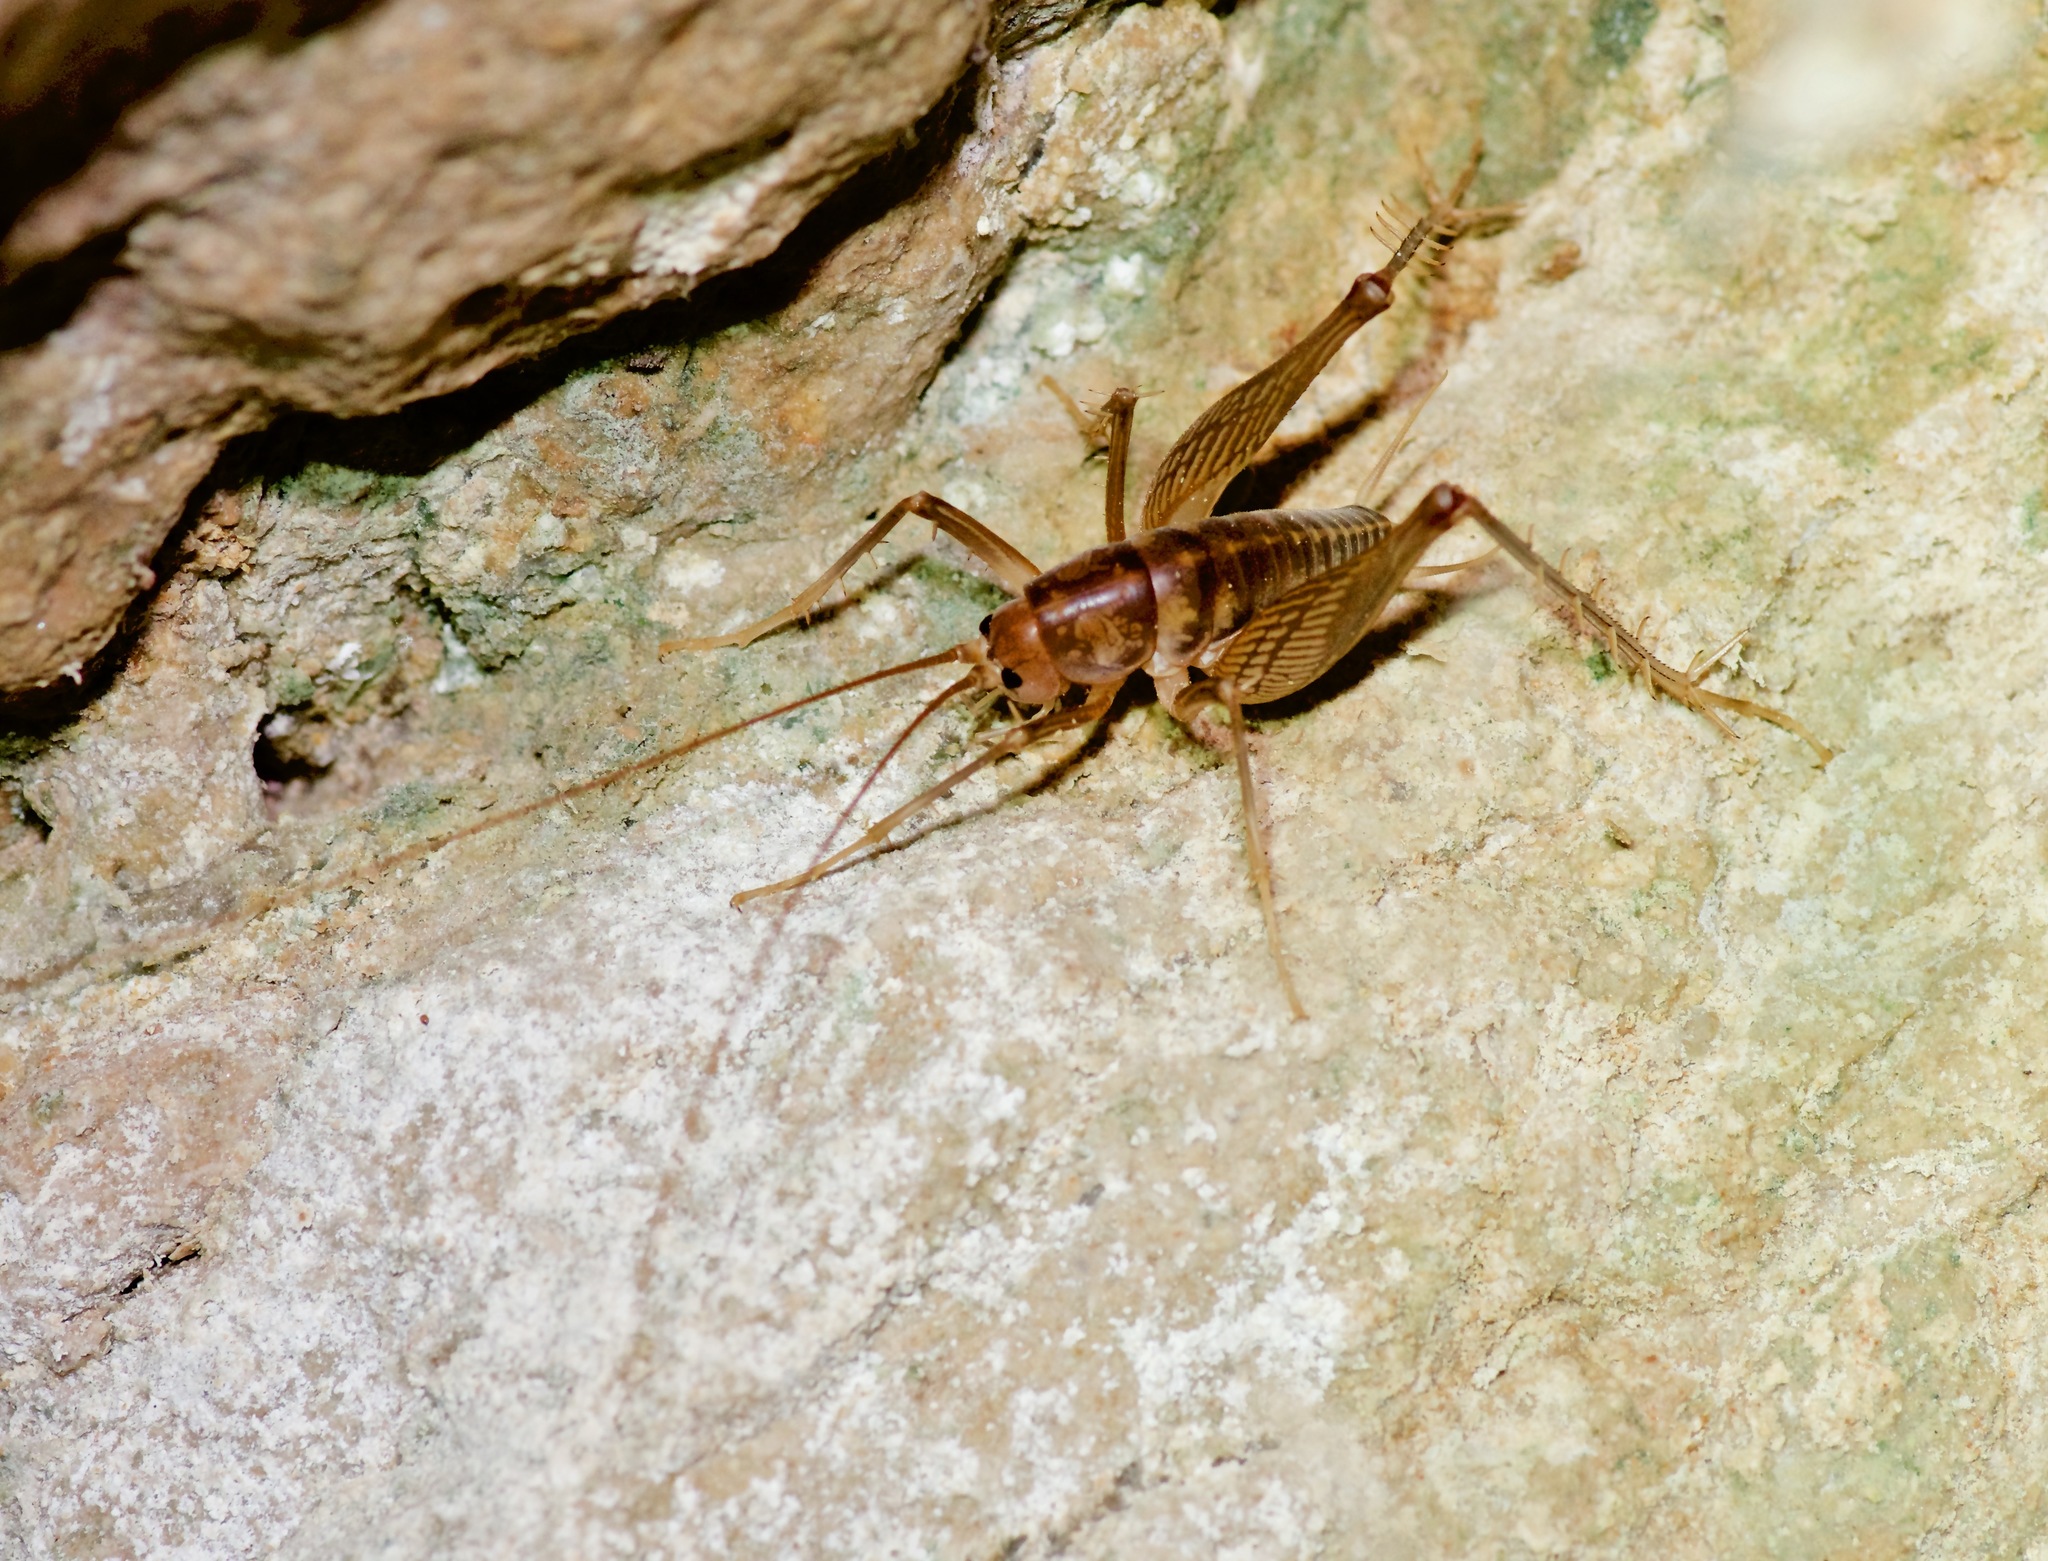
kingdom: Animalia
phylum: Arthropoda
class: Insecta
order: Orthoptera
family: Rhaphidophoridae
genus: Ceuthophilus
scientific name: Ceuthophilus secretus
